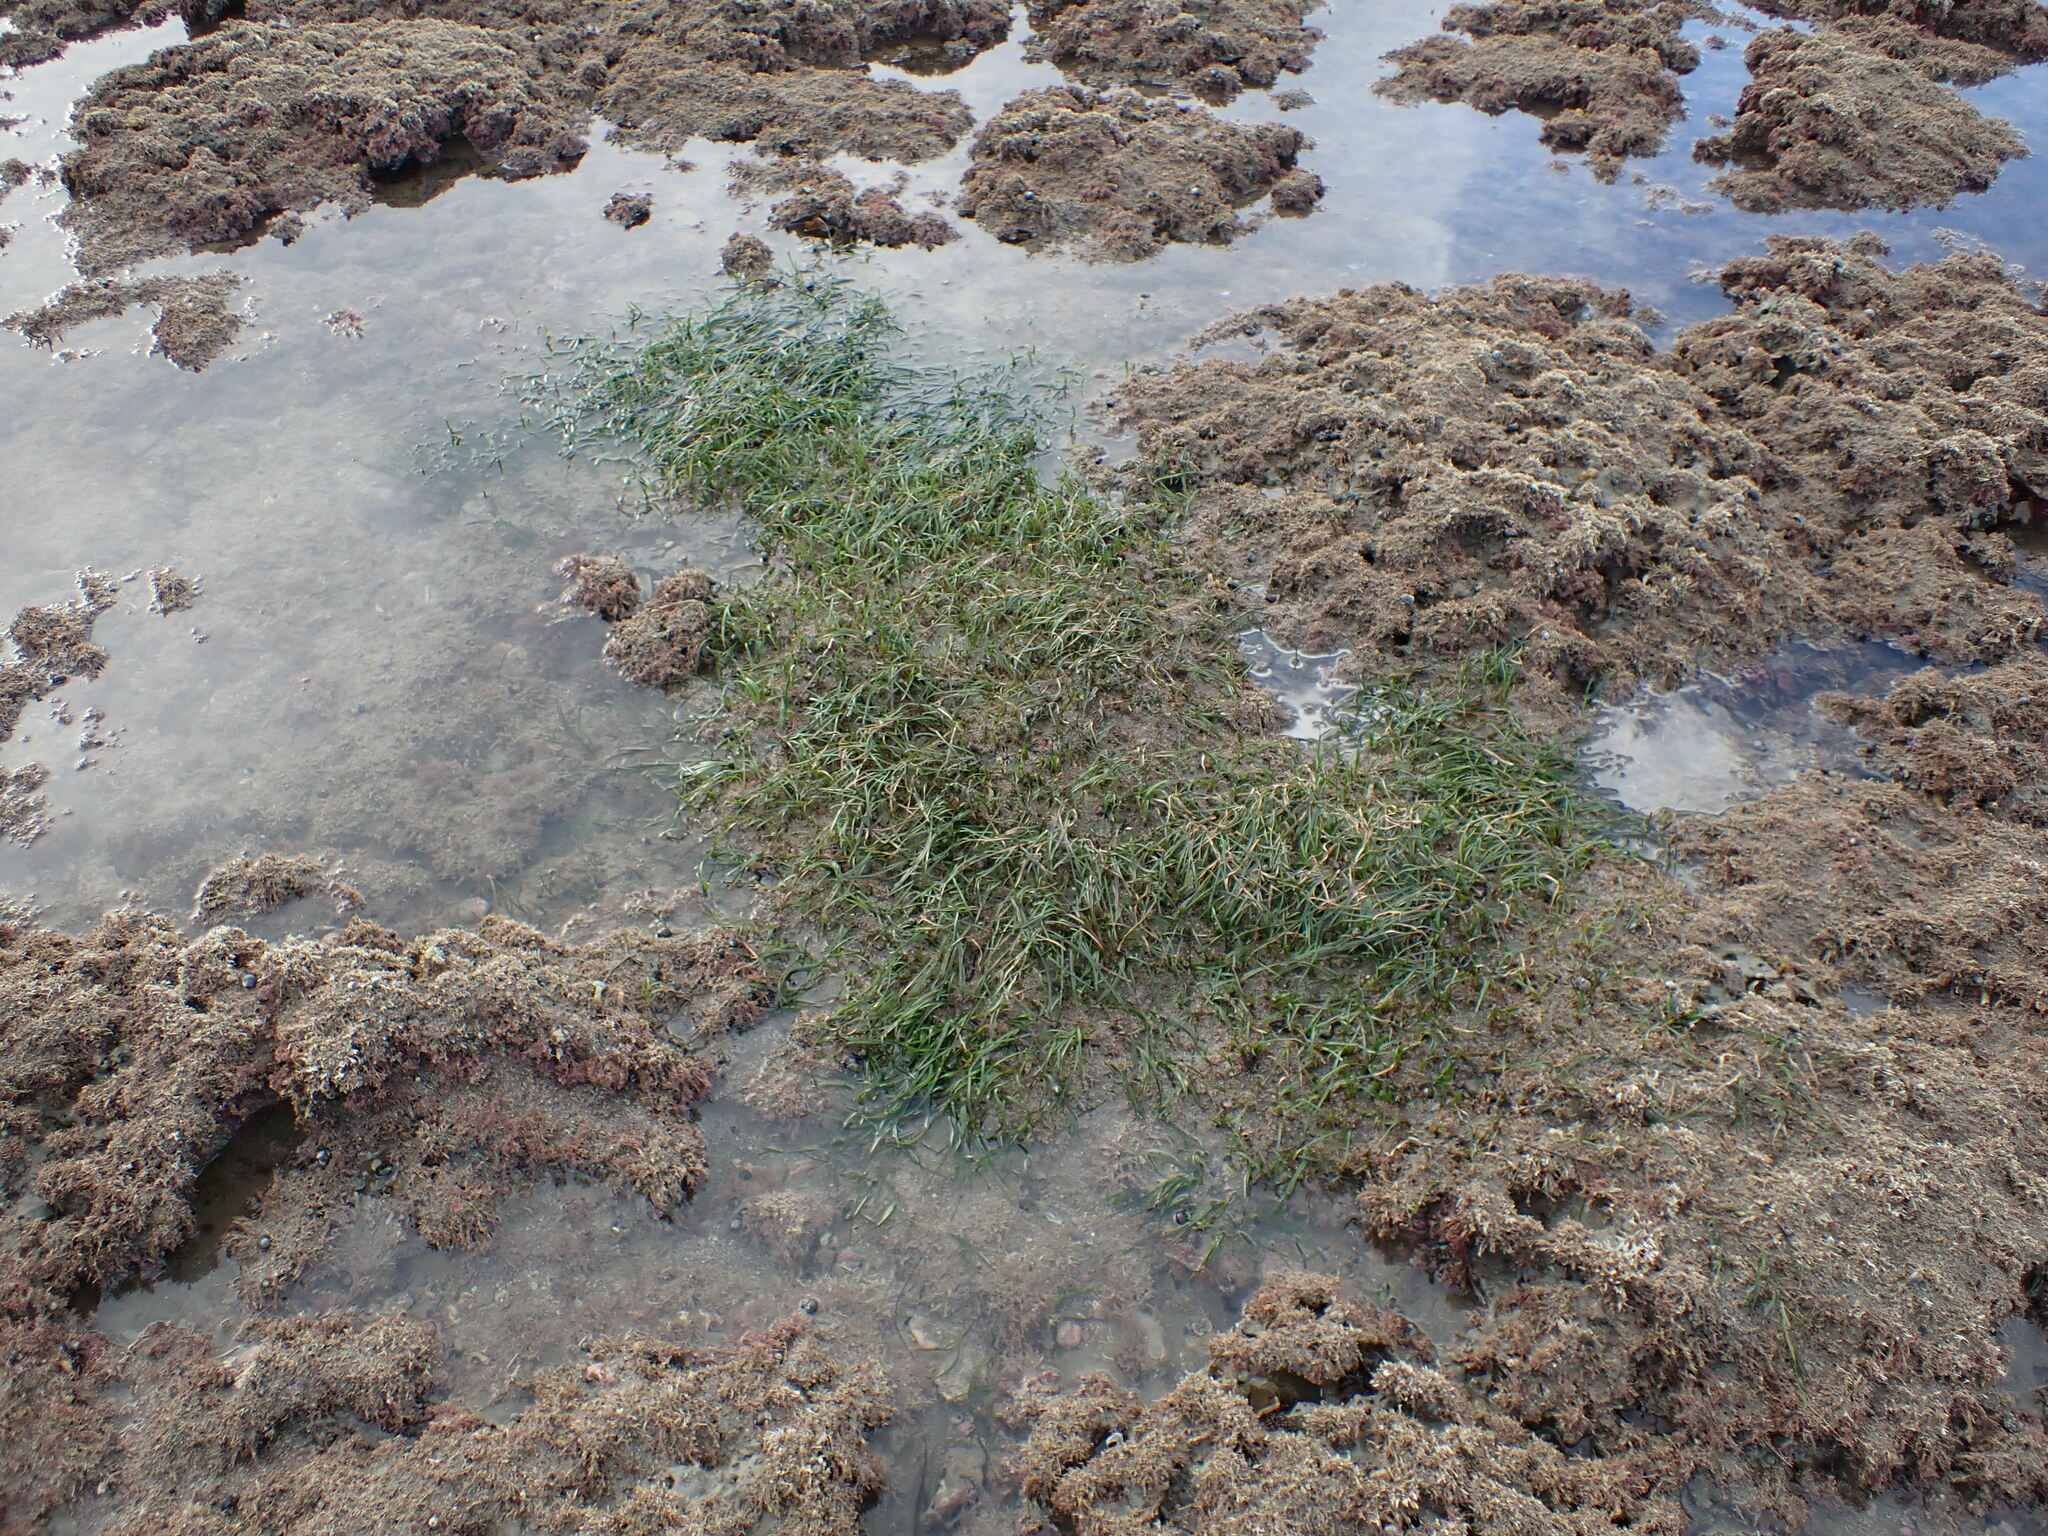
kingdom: Plantae
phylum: Tracheophyta
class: Liliopsida
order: Alismatales
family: Zosteraceae
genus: Zostera
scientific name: Zostera novazelandica
